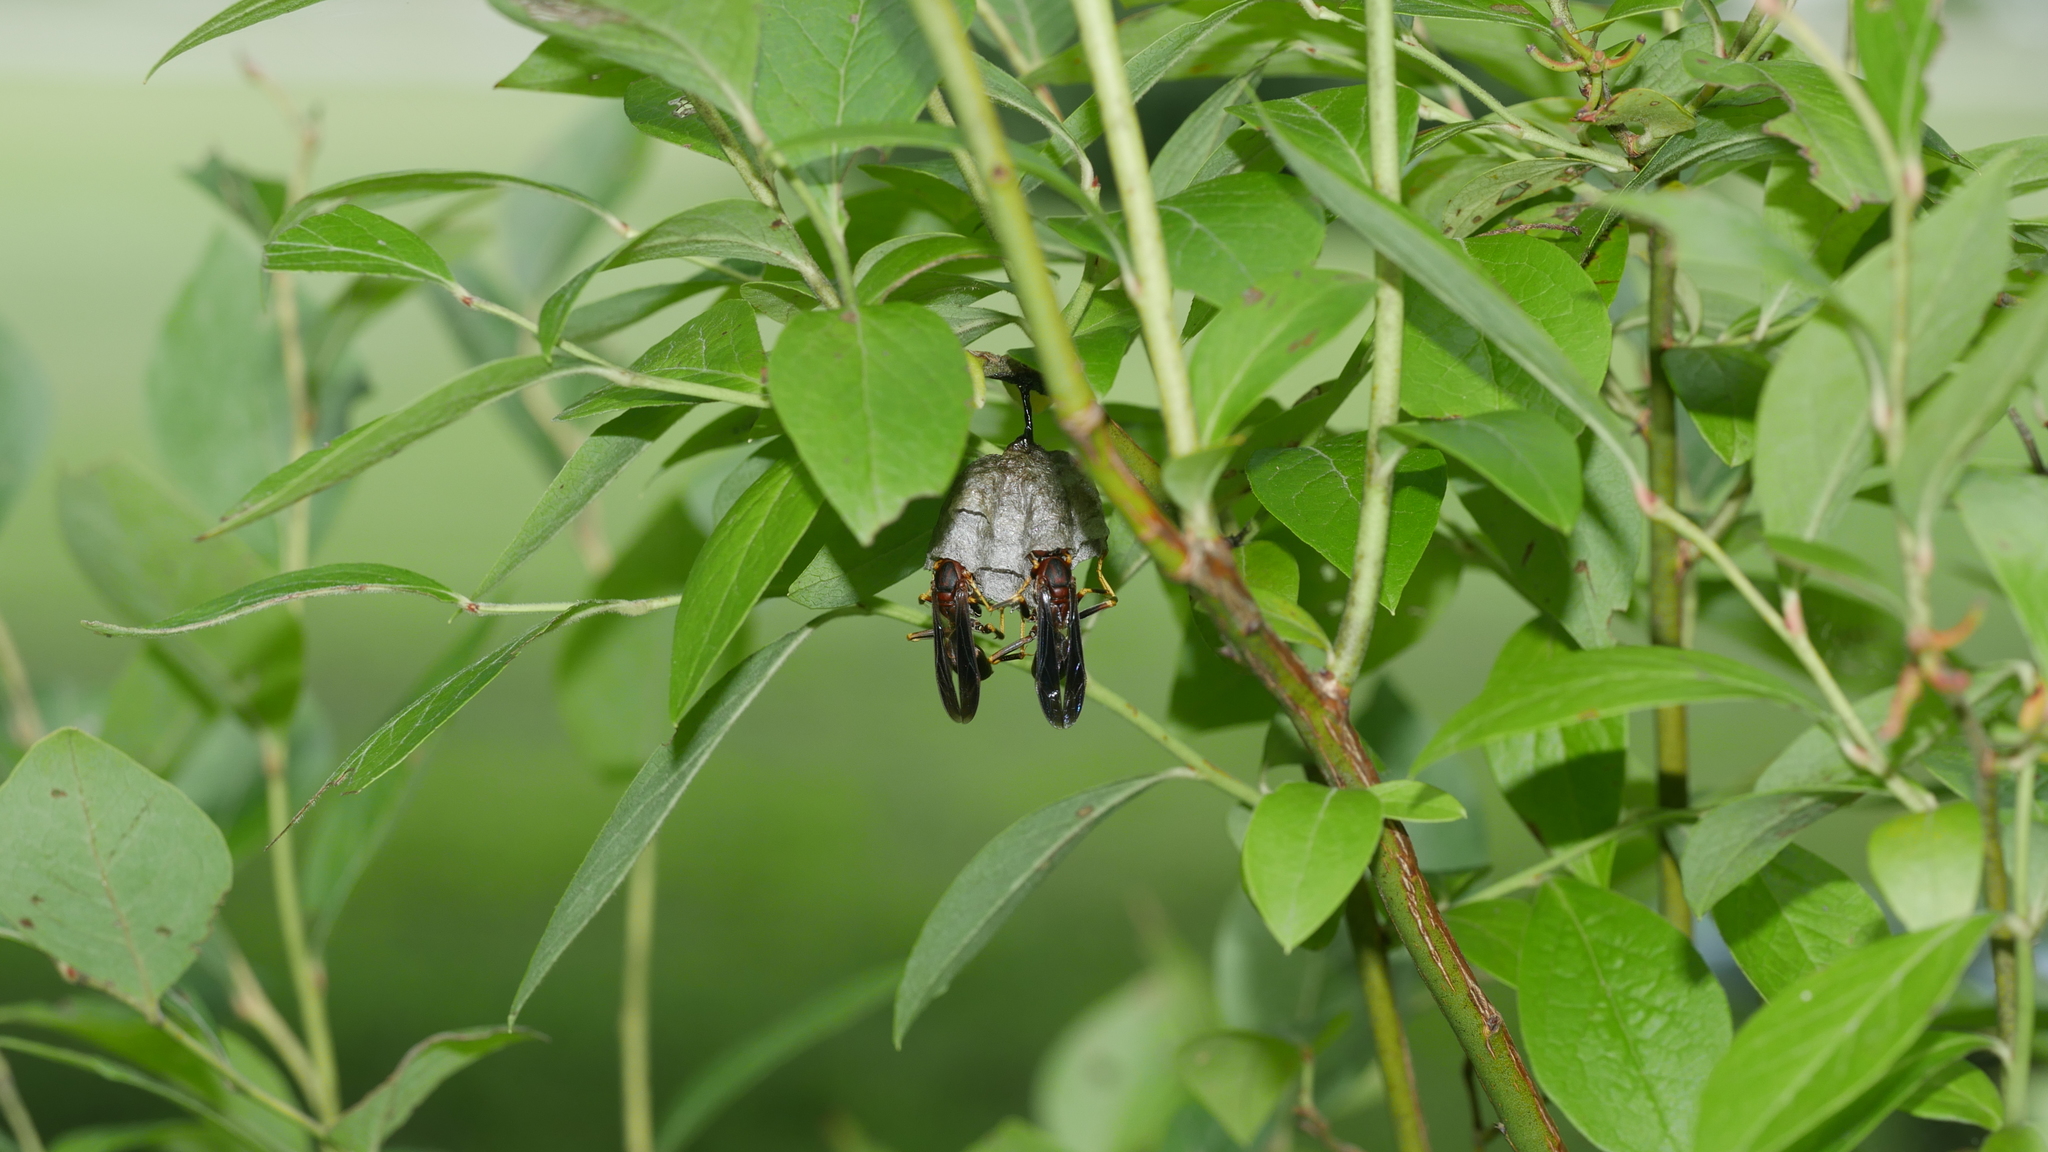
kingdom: Animalia
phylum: Arthropoda
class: Insecta
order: Hymenoptera
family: Eumenidae
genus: Polistes
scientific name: Polistes metricus
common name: Metric paper wasp
